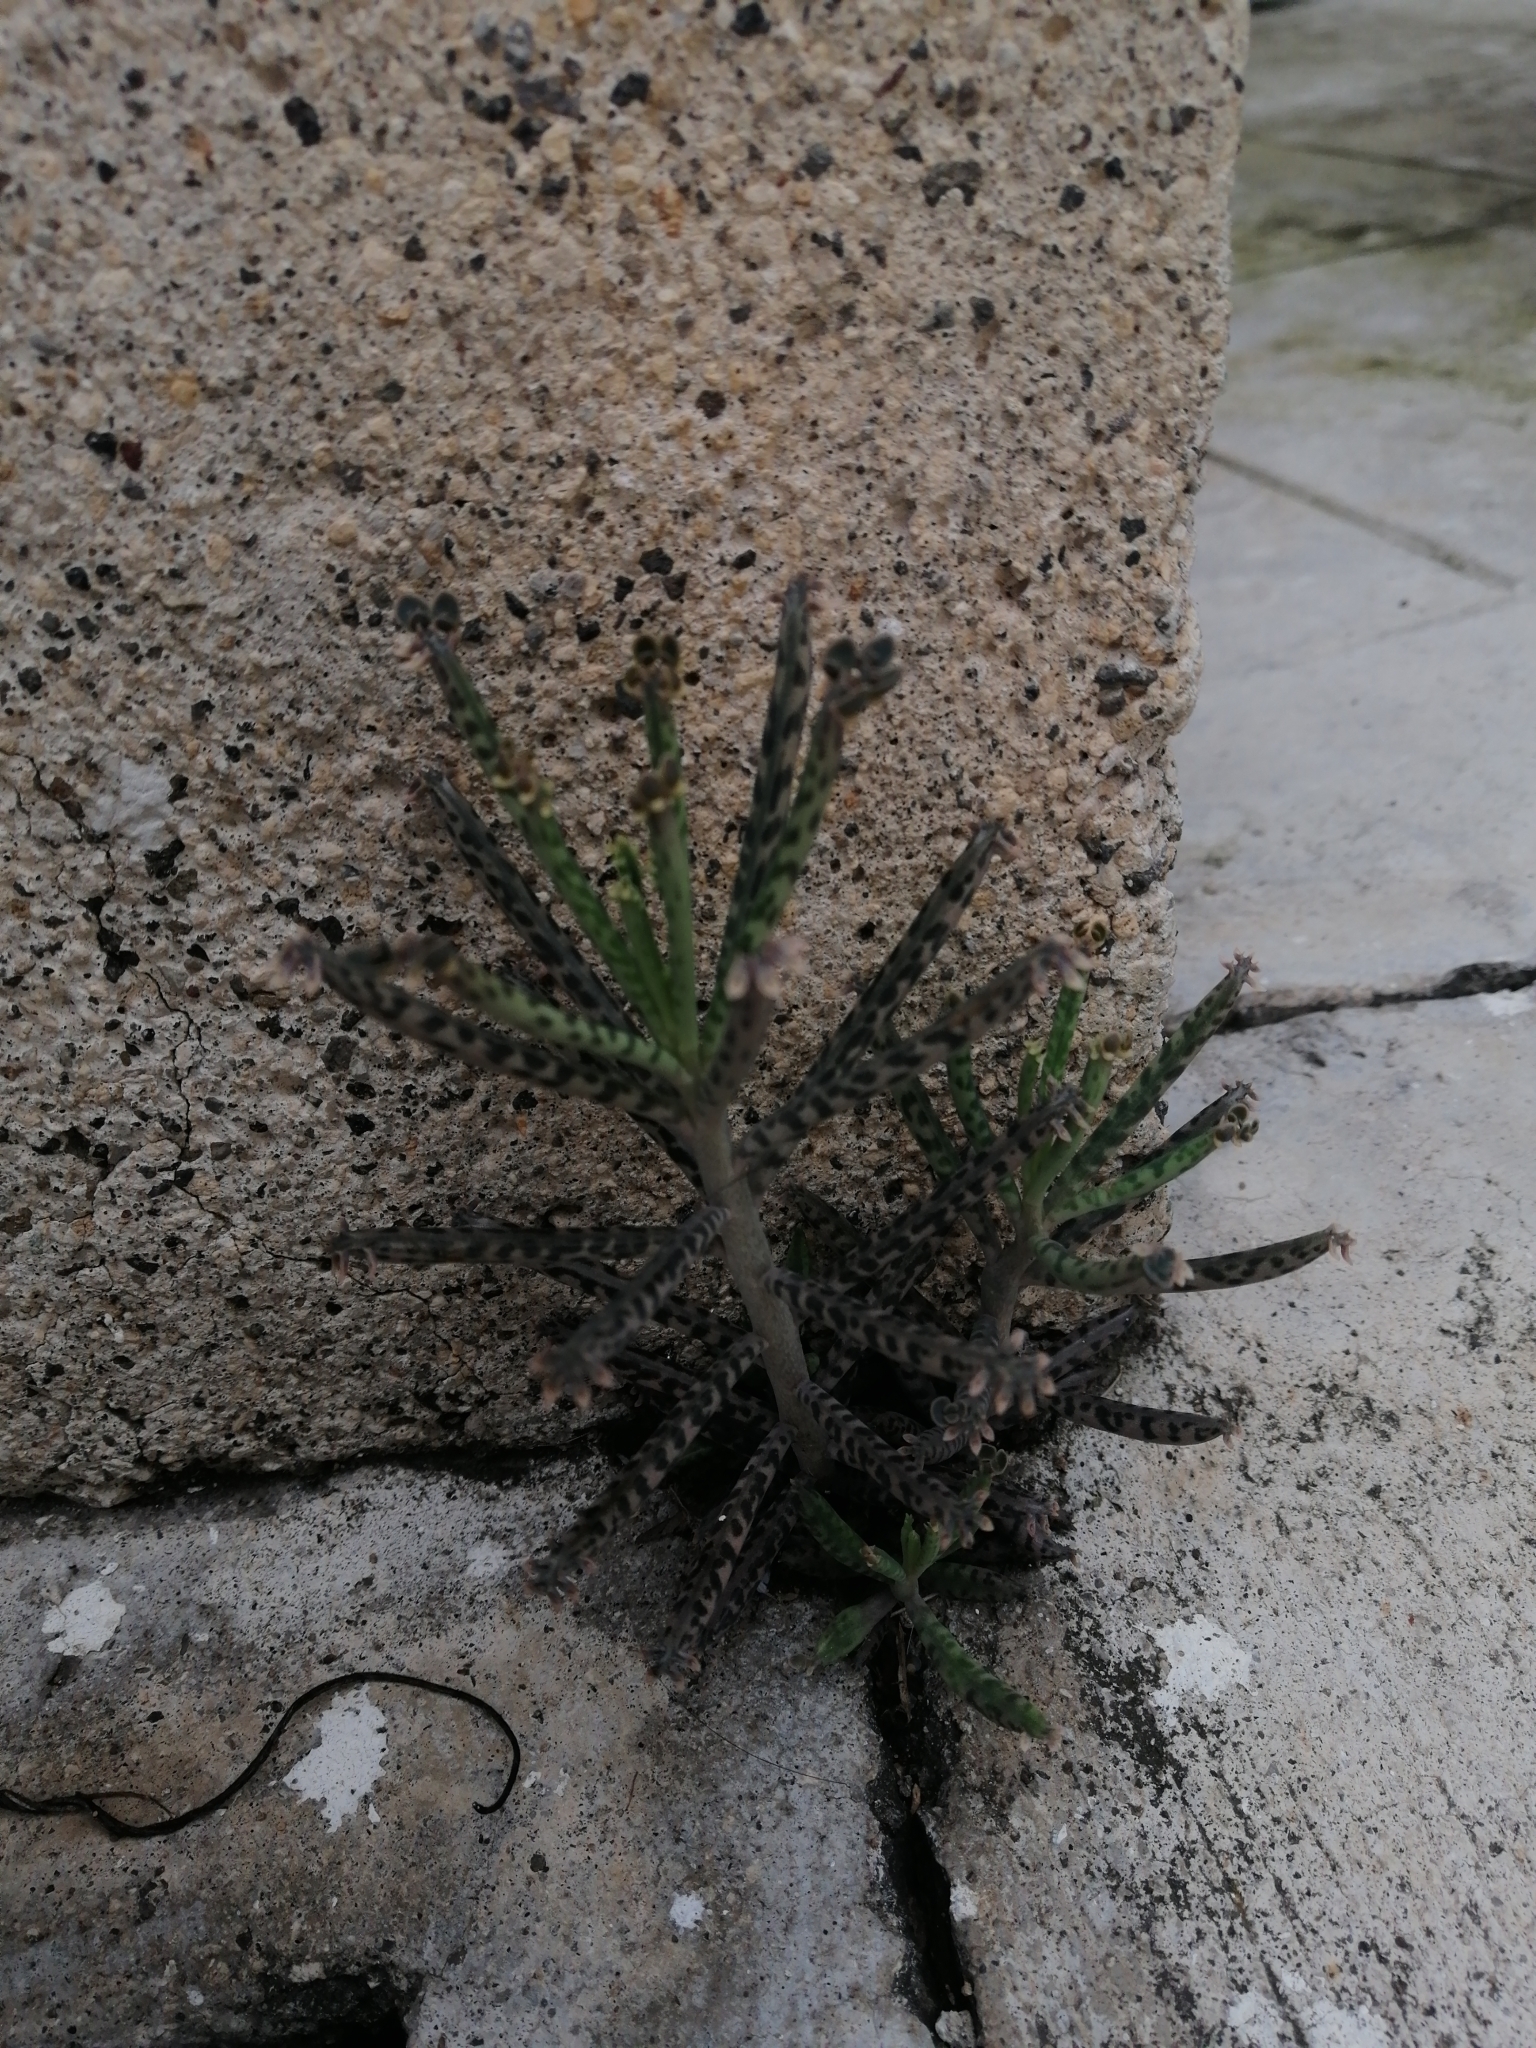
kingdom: Plantae
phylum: Tracheophyta
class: Magnoliopsida
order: Saxifragales
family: Crassulaceae
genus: Kalanchoe
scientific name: Kalanchoe delagoensis
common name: Chandelier plant
